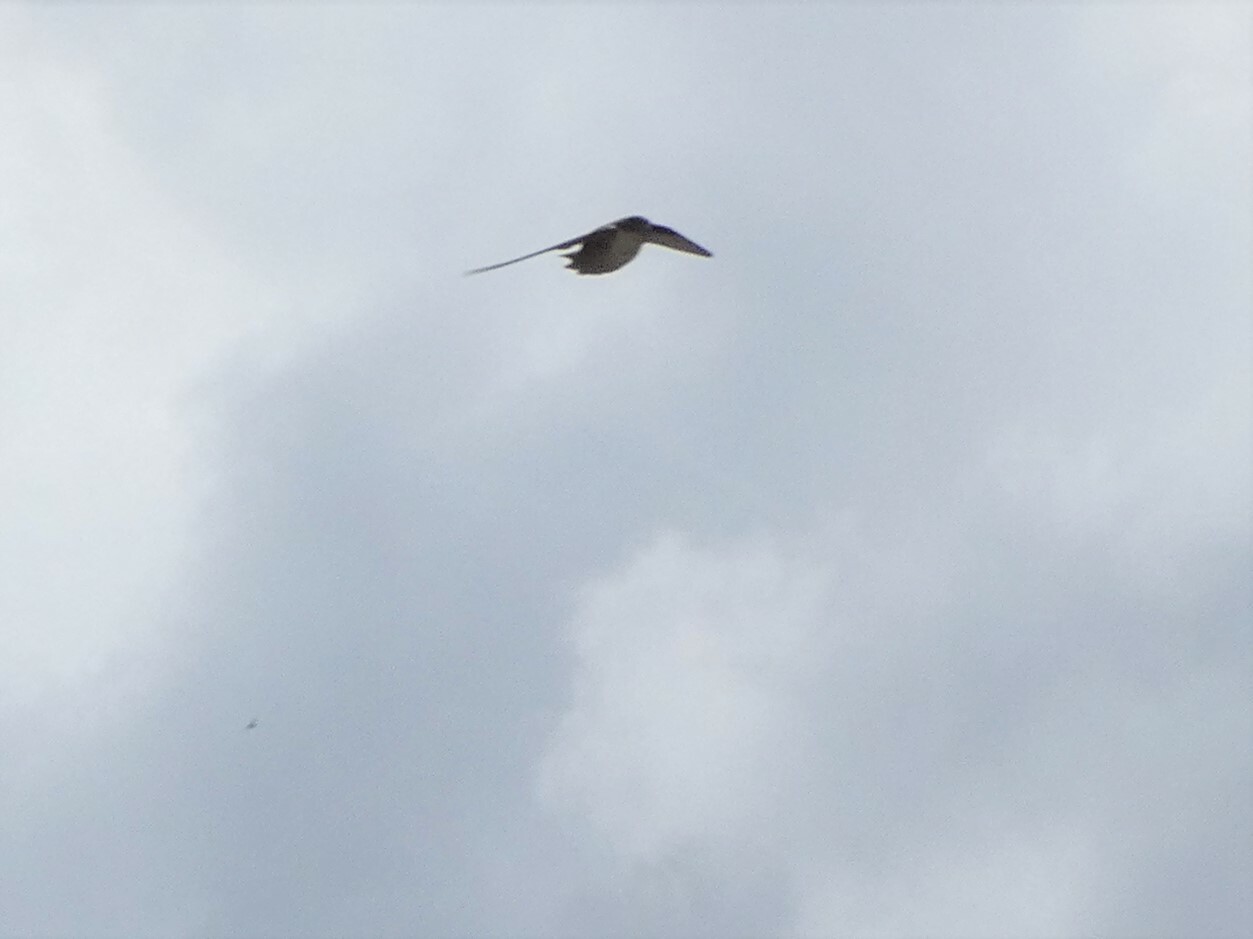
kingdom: Animalia
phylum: Chordata
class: Aves
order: Passeriformes
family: Hirundinidae
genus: Ptyonoprogne
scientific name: Ptyonoprogne rupestris
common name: Eurasian crag martin
